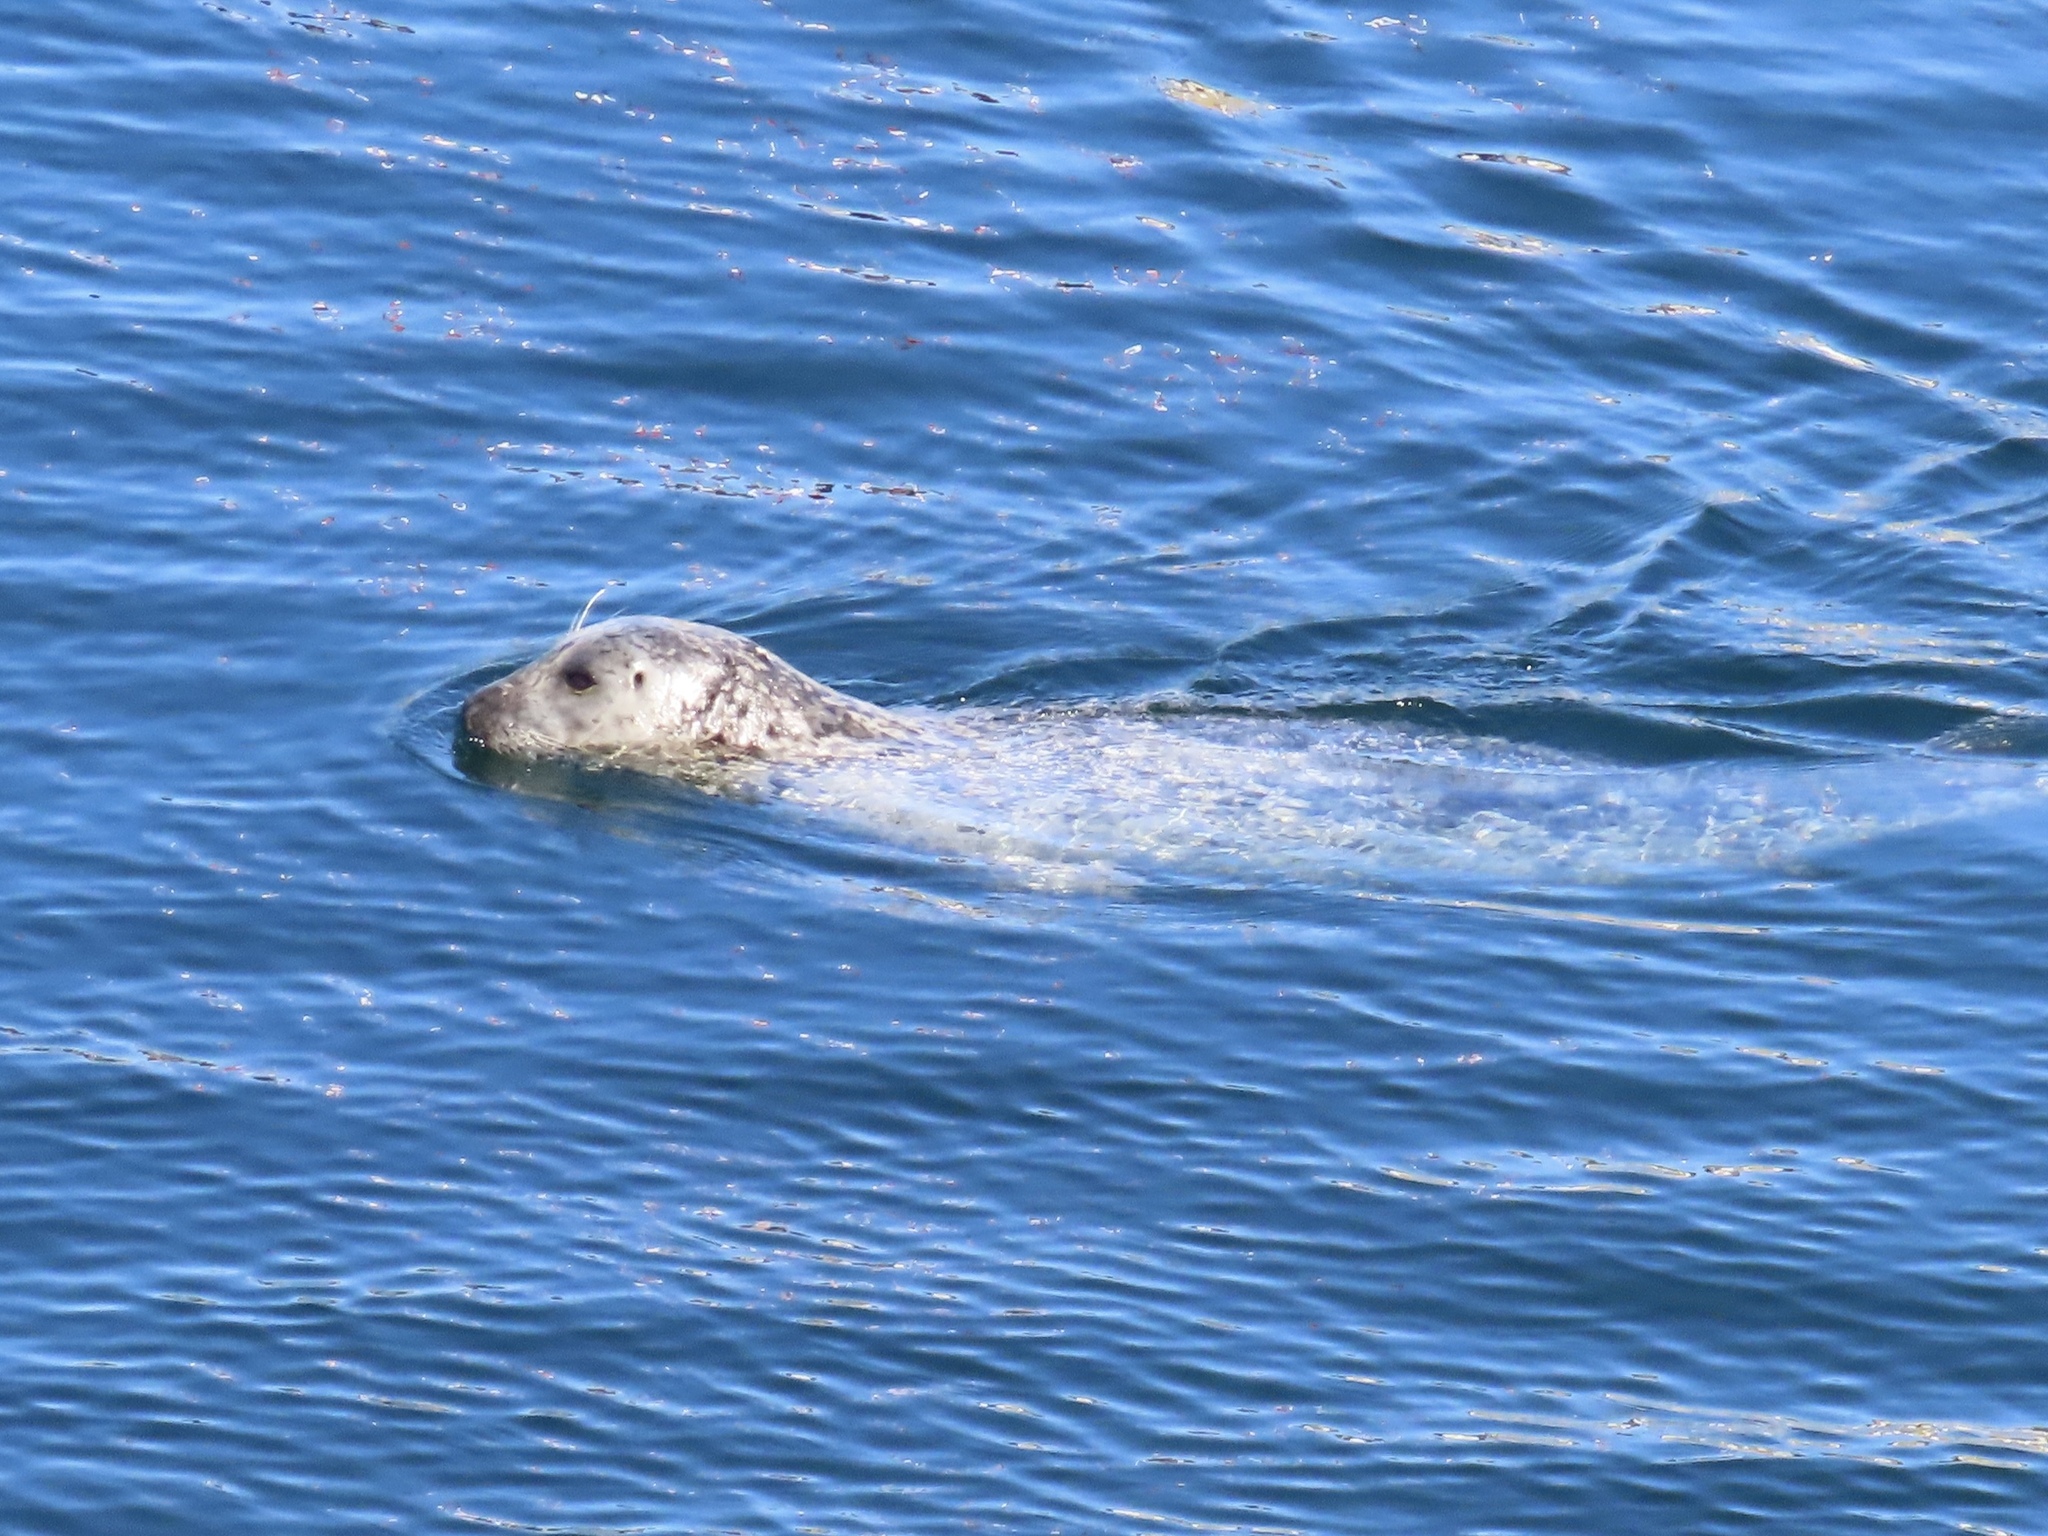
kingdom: Animalia
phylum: Chordata
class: Mammalia
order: Carnivora
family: Phocidae
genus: Phoca
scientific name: Phoca vitulina
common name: Harbor seal
